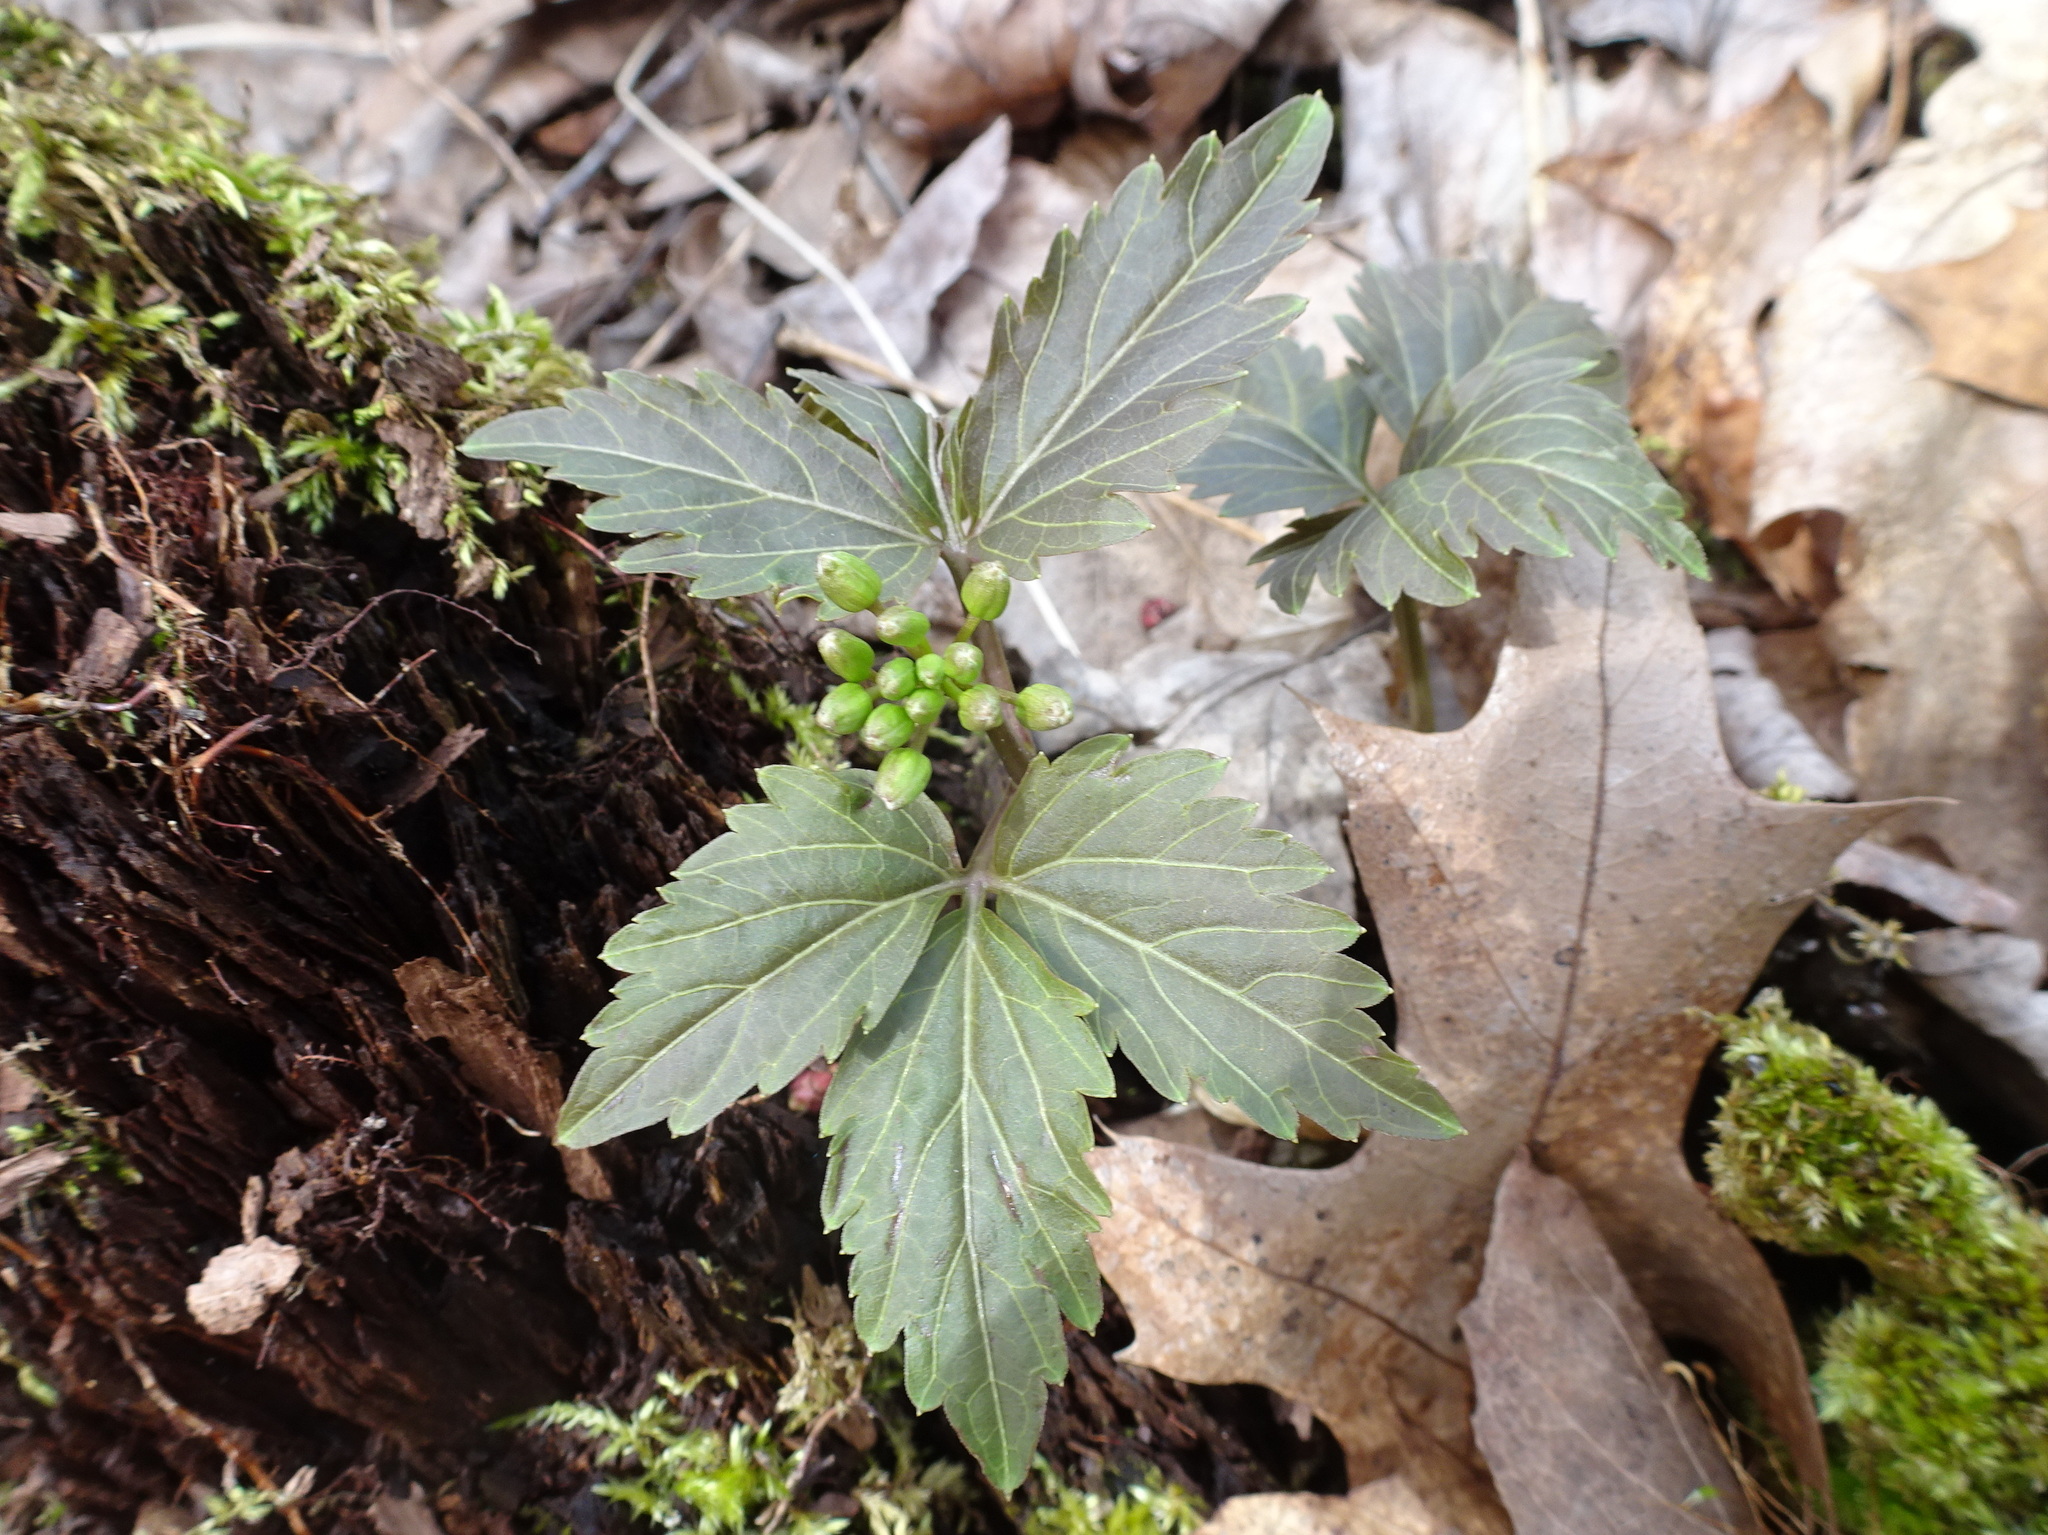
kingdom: Plantae
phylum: Tracheophyta
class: Magnoliopsida
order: Brassicales
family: Brassicaceae
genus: Cardamine
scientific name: Cardamine diphylla
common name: Broad-leaved toothwort
